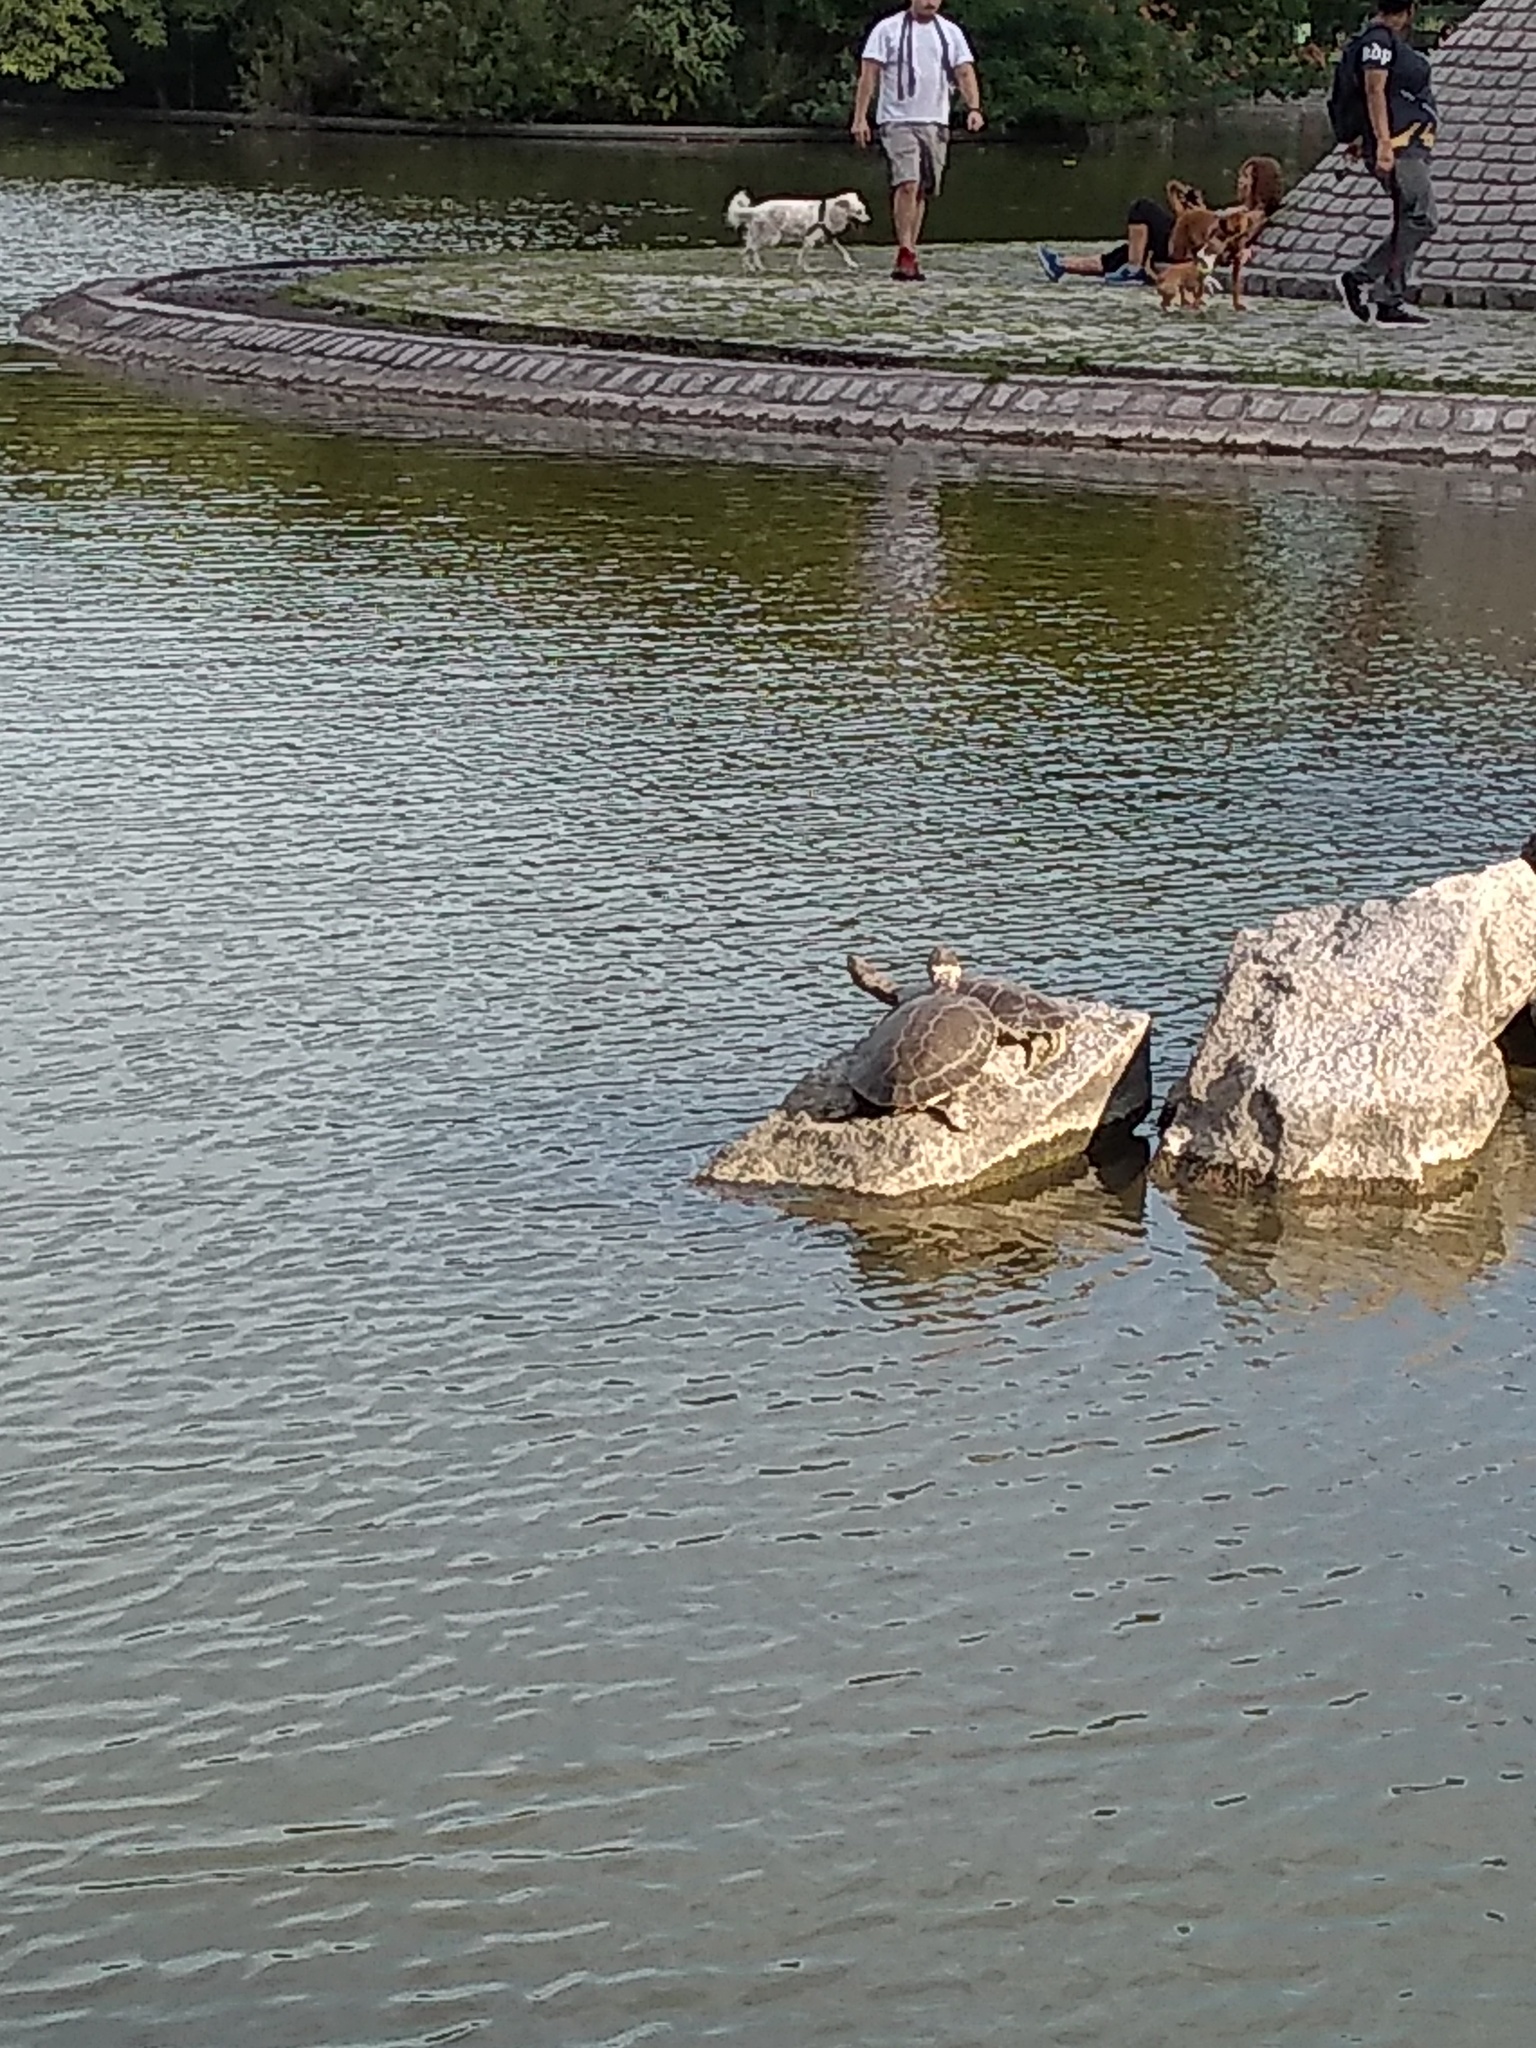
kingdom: Animalia
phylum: Chordata
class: Testudines
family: Chelidae
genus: Phrynops
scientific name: Phrynops hilarii
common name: Side-necked turtle of saint hillaire
